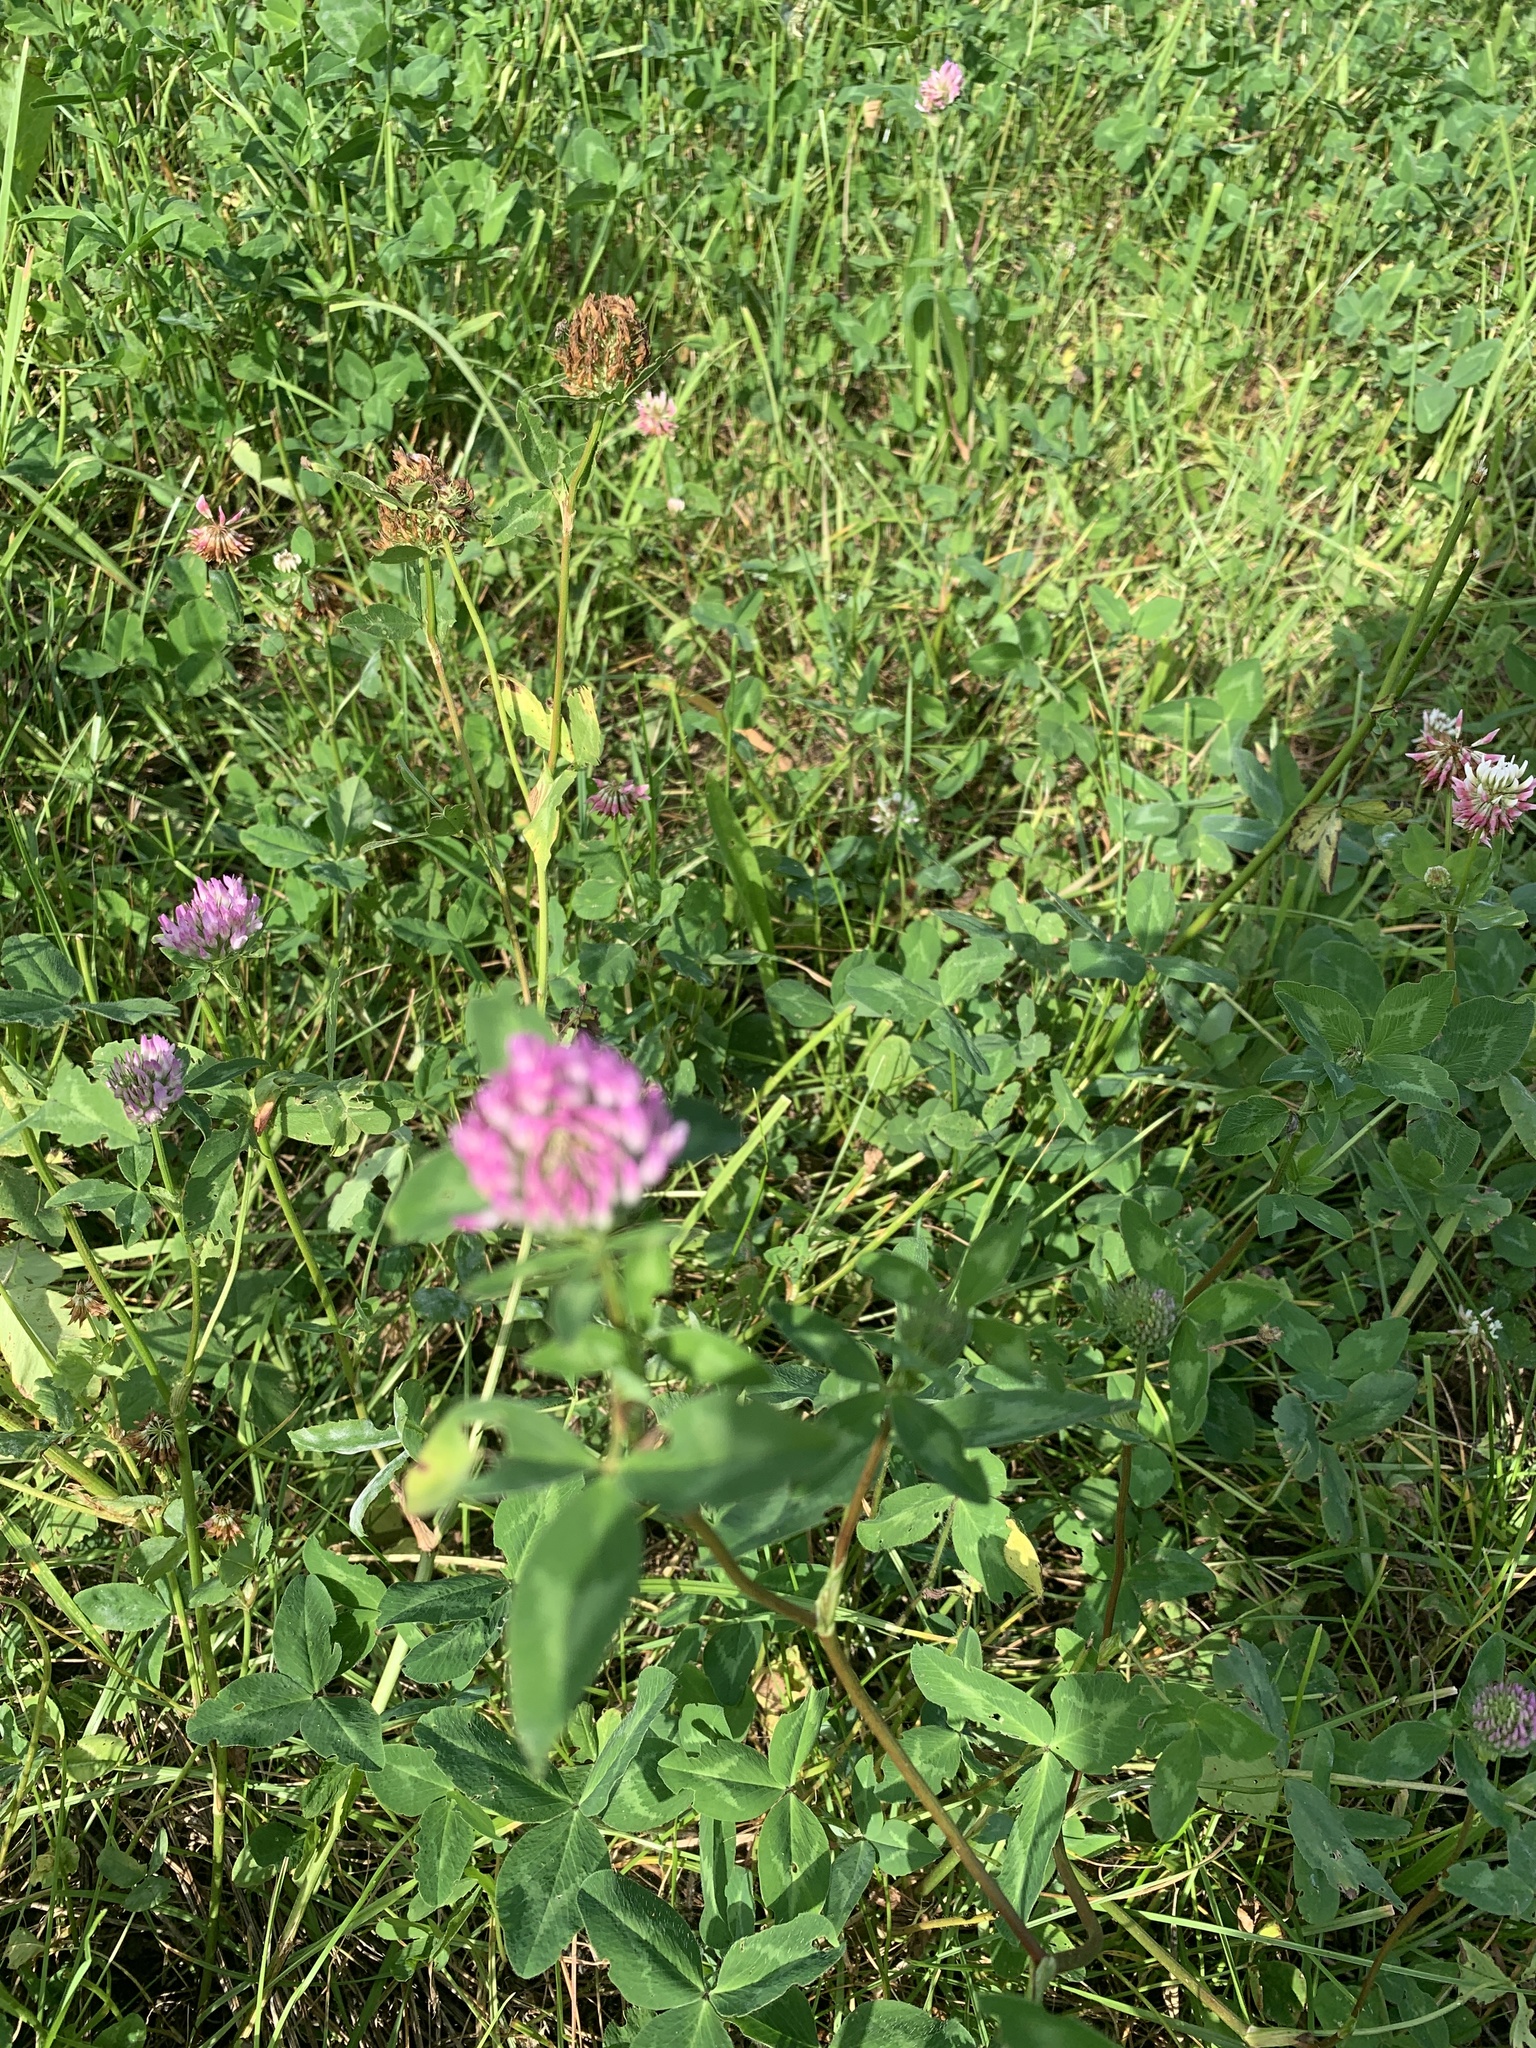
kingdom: Plantae
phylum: Tracheophyta
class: Magnoliopsida
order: Fabales
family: Fabaceae
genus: Trifolium
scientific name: Trifolium pratense
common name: Red clover
